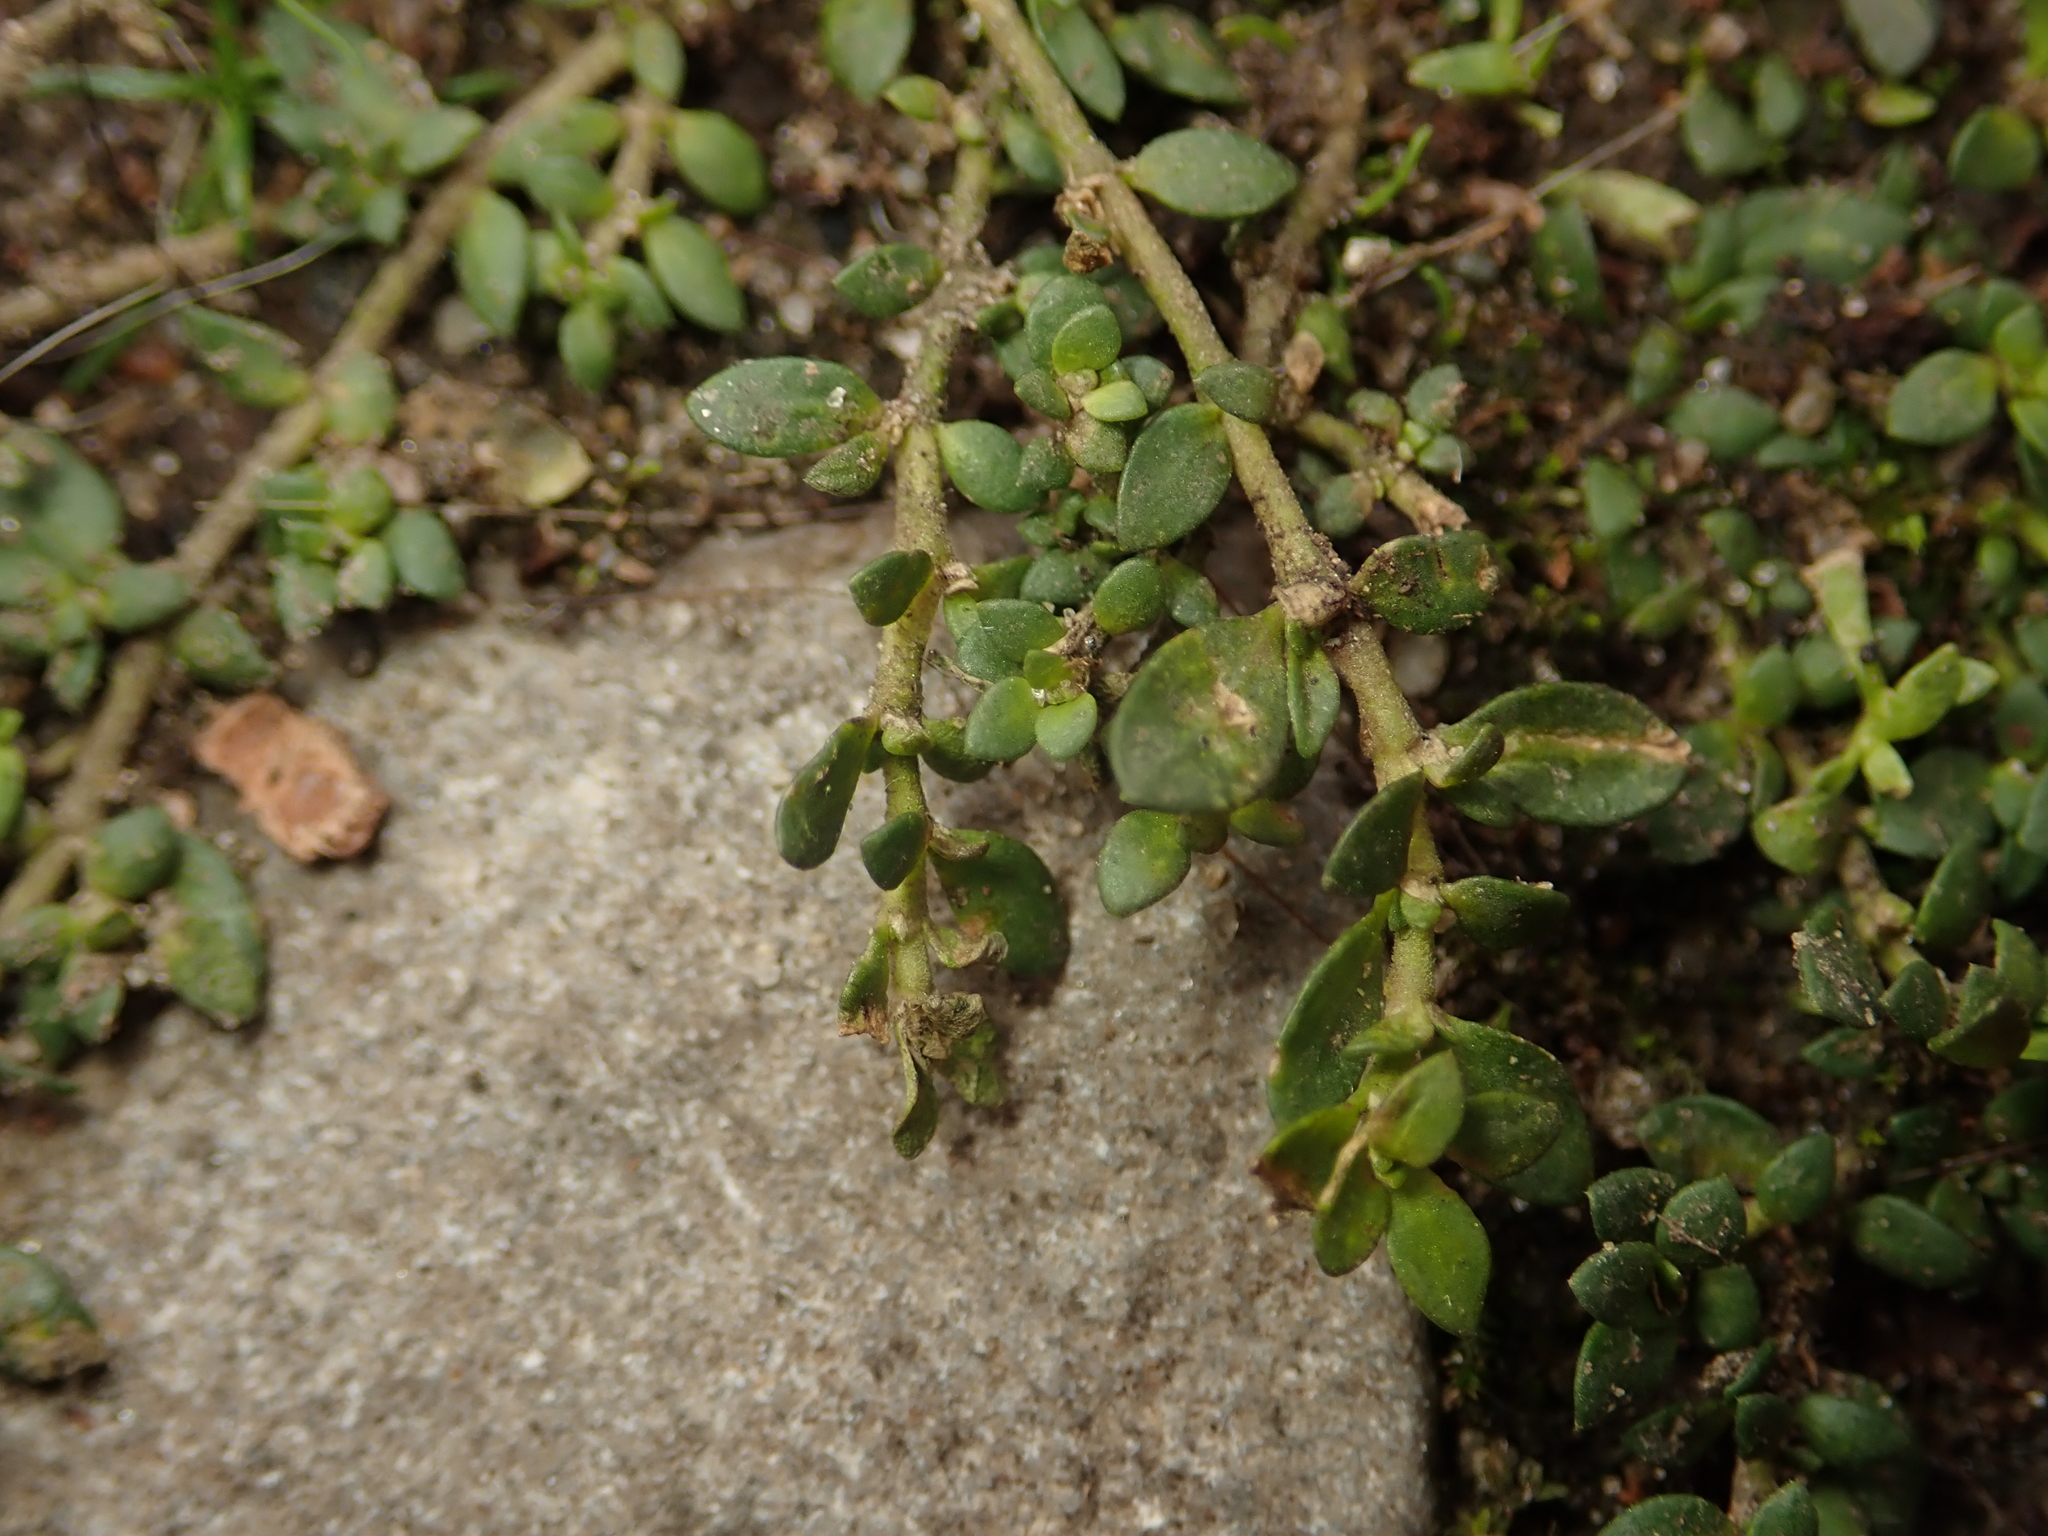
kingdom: Plantae
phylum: Tracheophyta
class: Magnoliopsida
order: Caryophyllales
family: Caryophyllaceae
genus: Herniaria
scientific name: Herniaria glabra
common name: Smooth rupturewort
